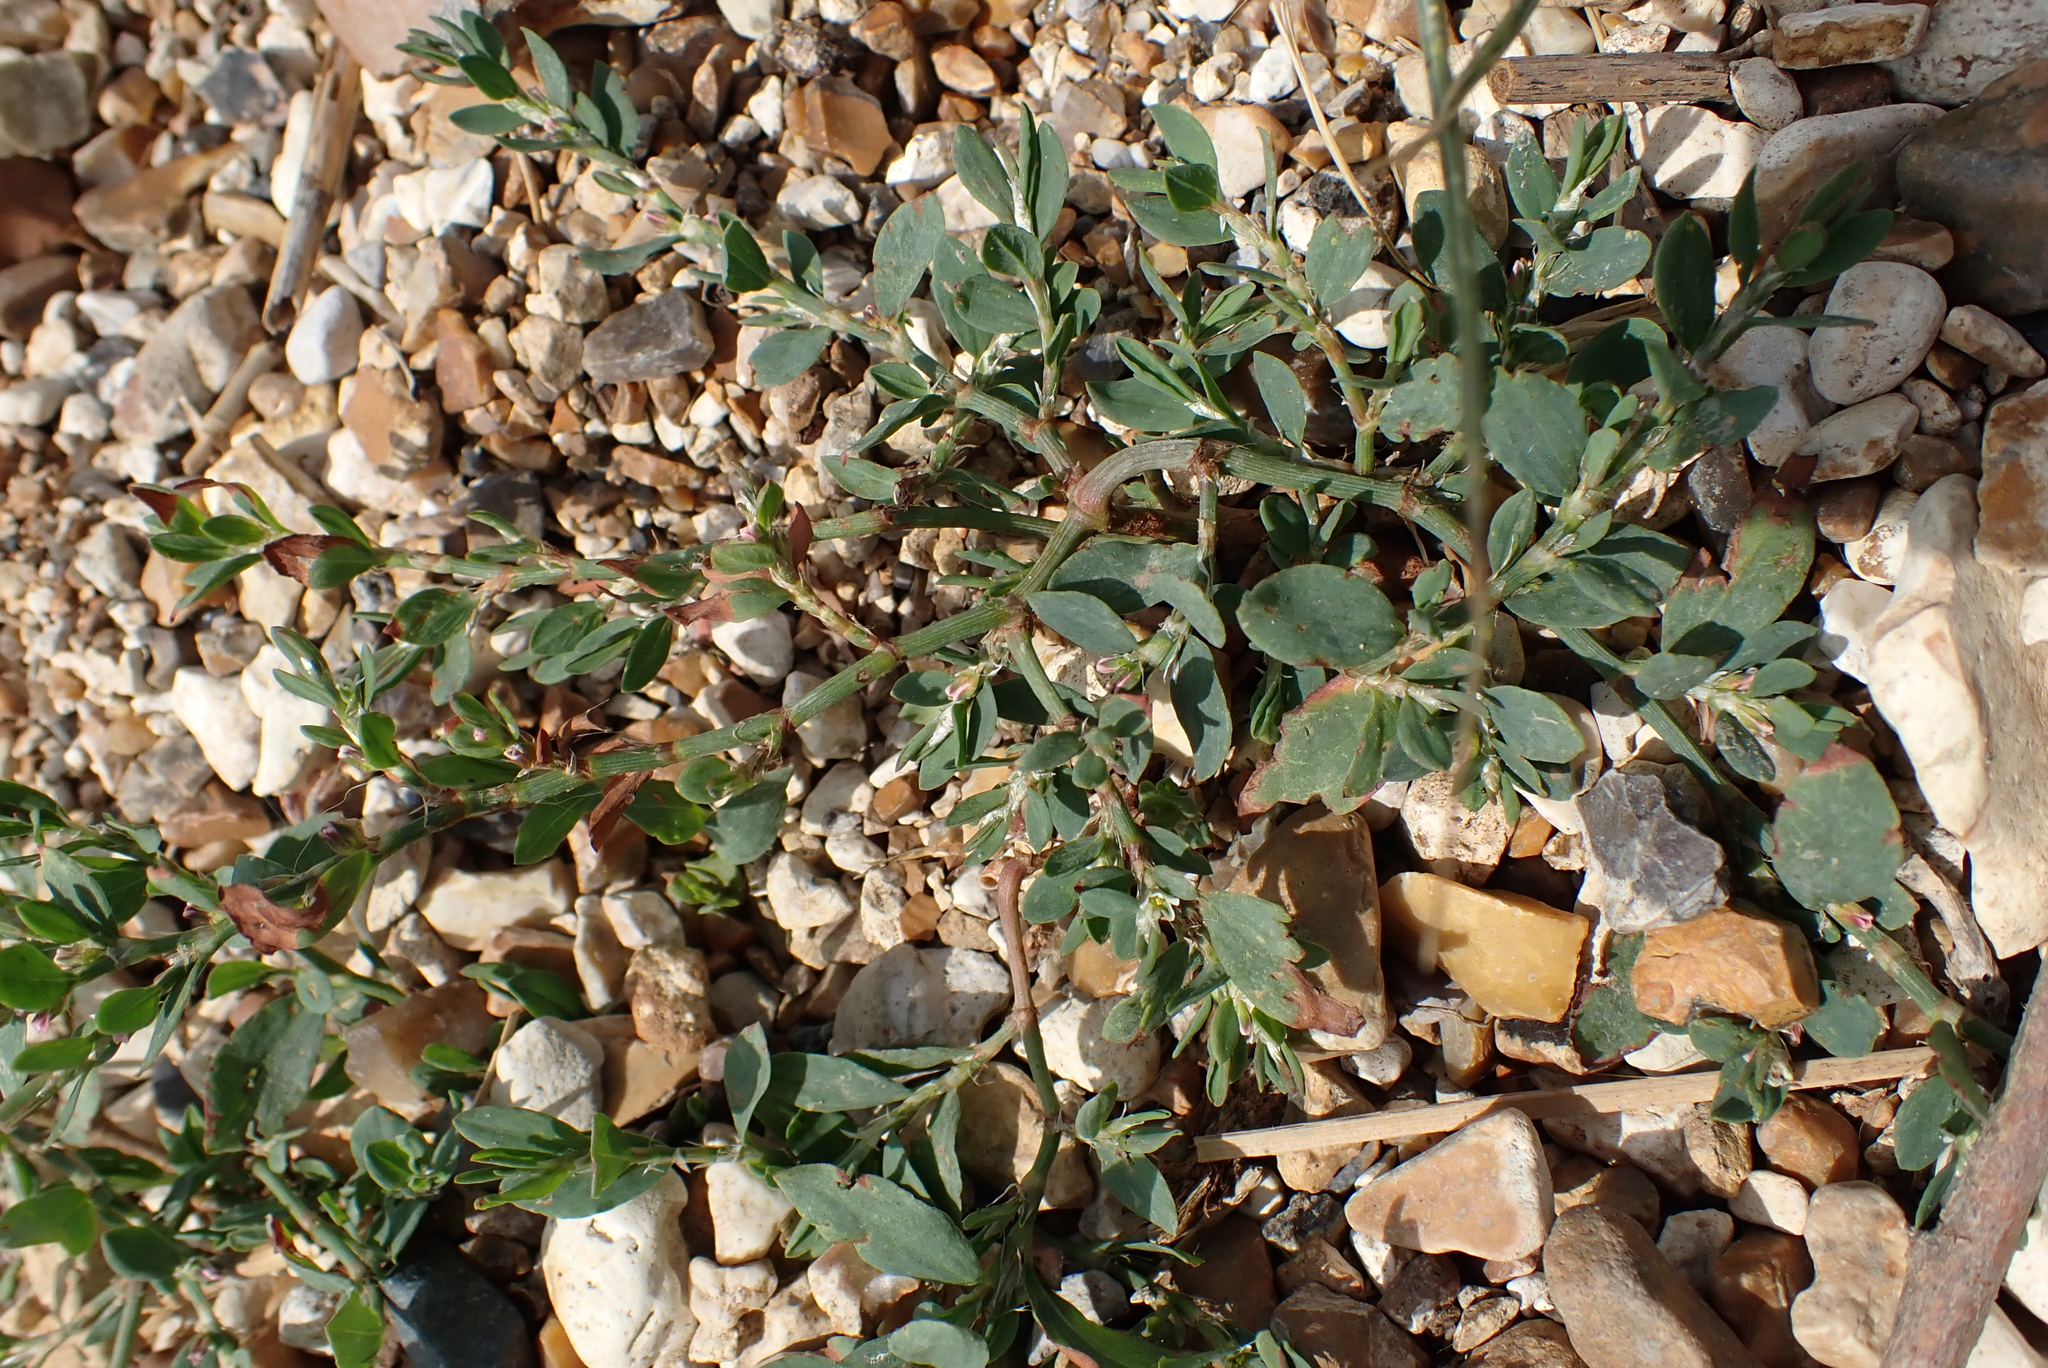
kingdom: Plantae
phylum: Tracheophyta
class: Magnoliopsida
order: Caryophyllales
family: Polygonaceae
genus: Polygonum
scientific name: Polygonum aviculare
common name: Prostrate knotweed
